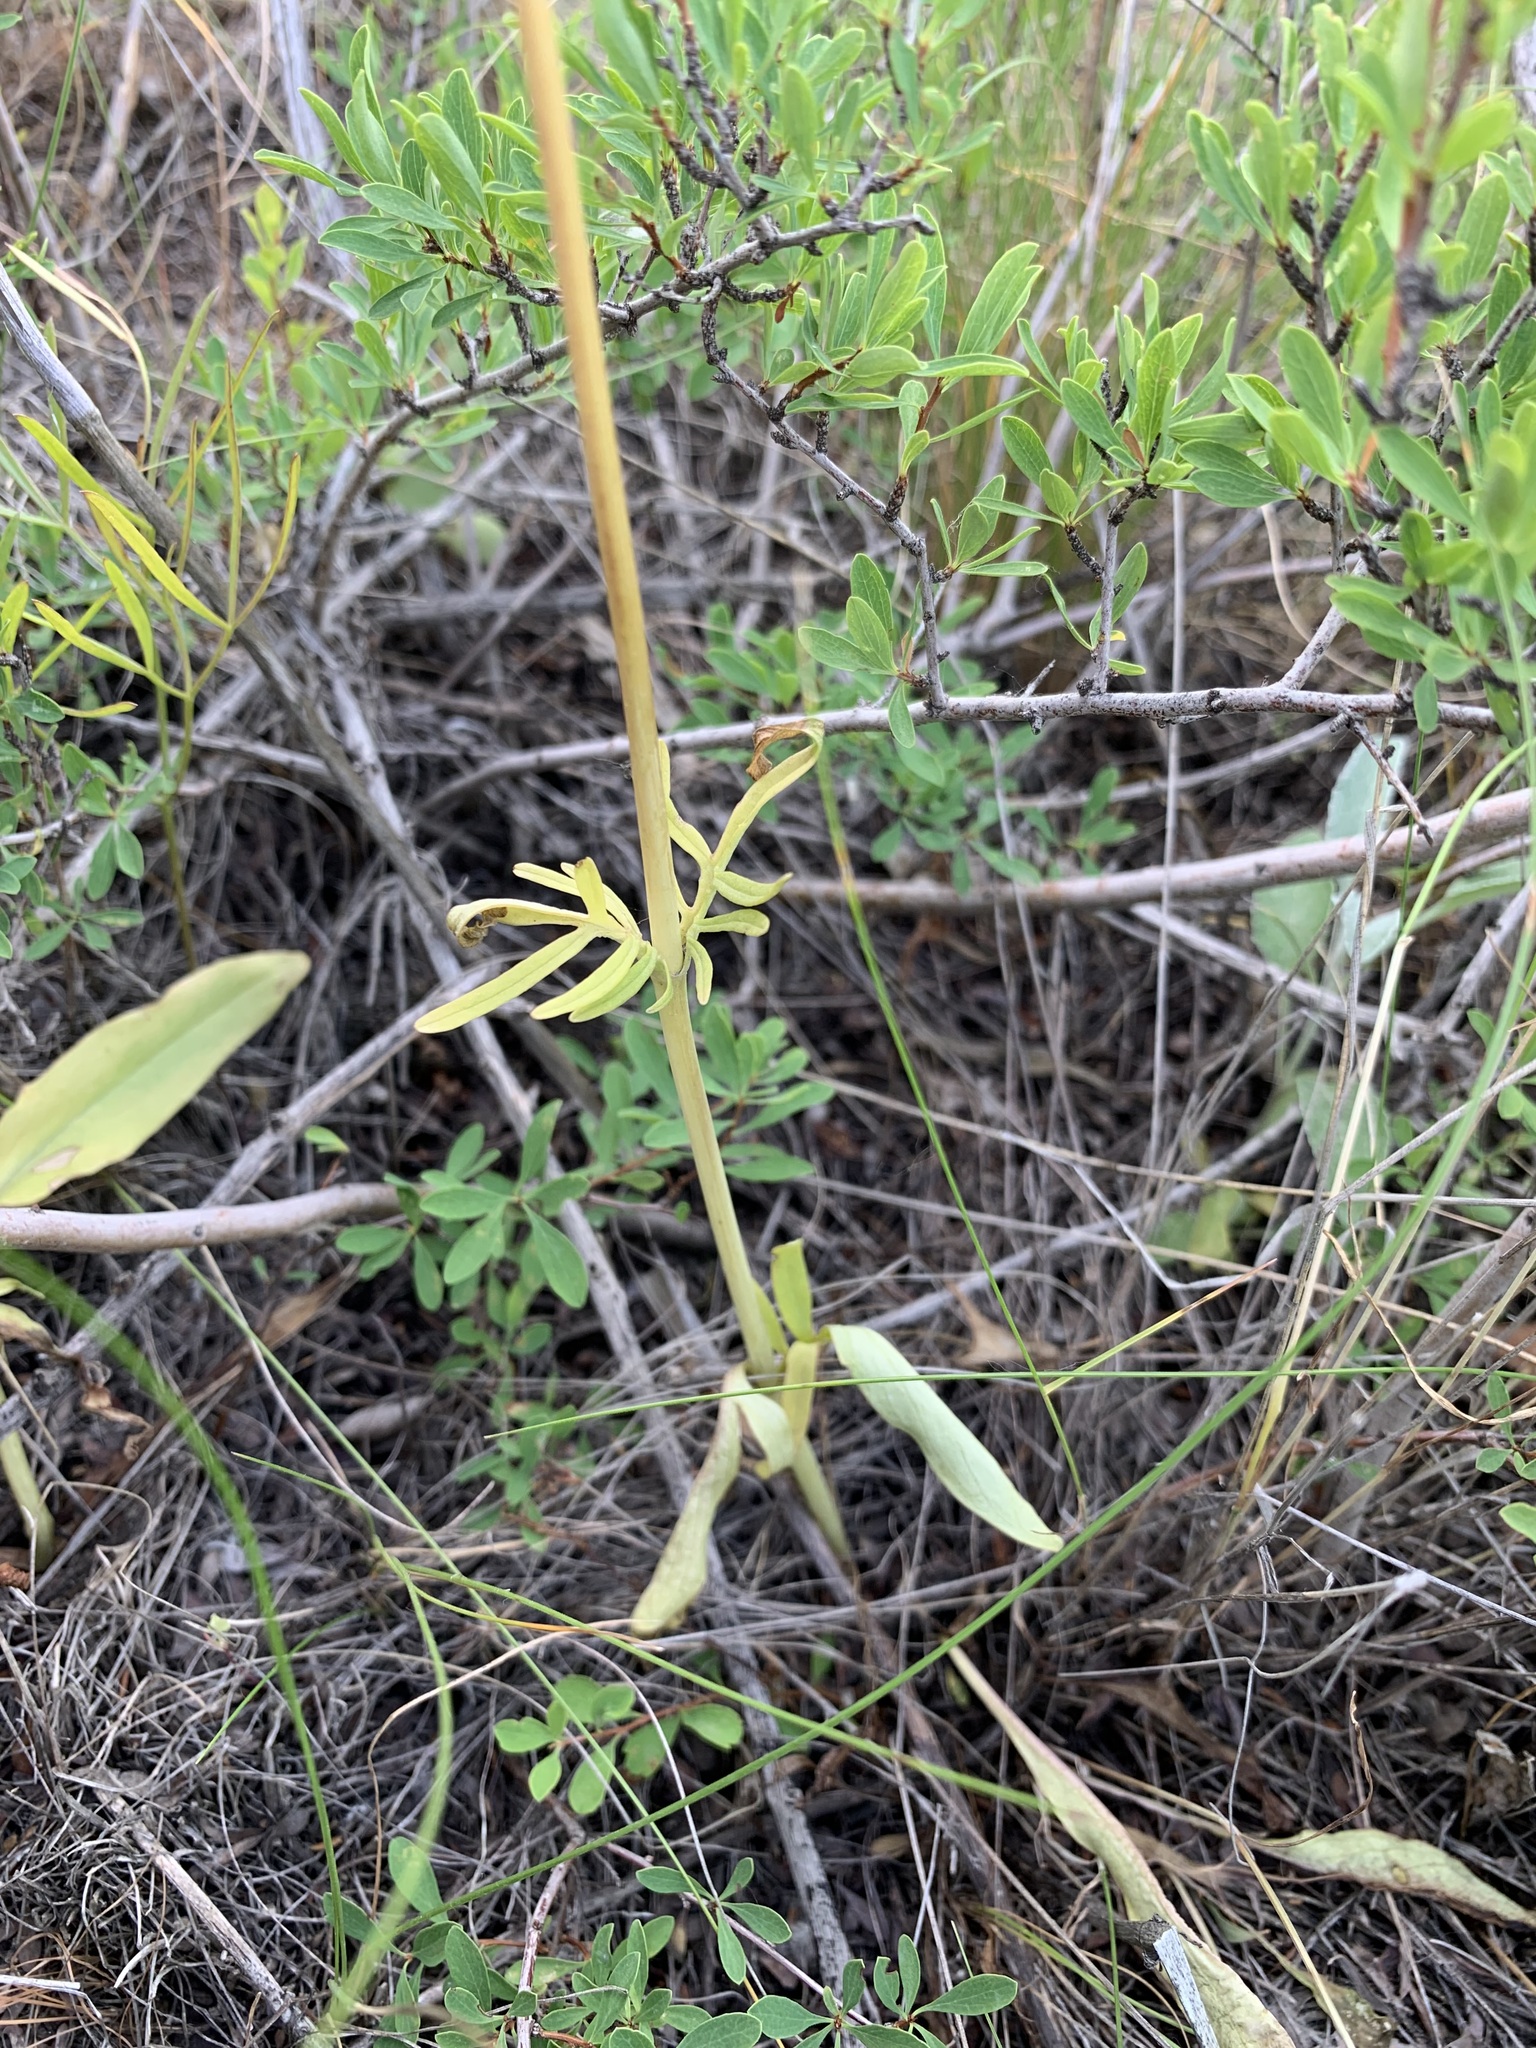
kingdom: Plantae
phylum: Tracheophyta
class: Magnoliopsida
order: Dipsacales
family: Caprifoliaceae
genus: Valeriana
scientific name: Valeriana tuberosa
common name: Tuberous valerian
